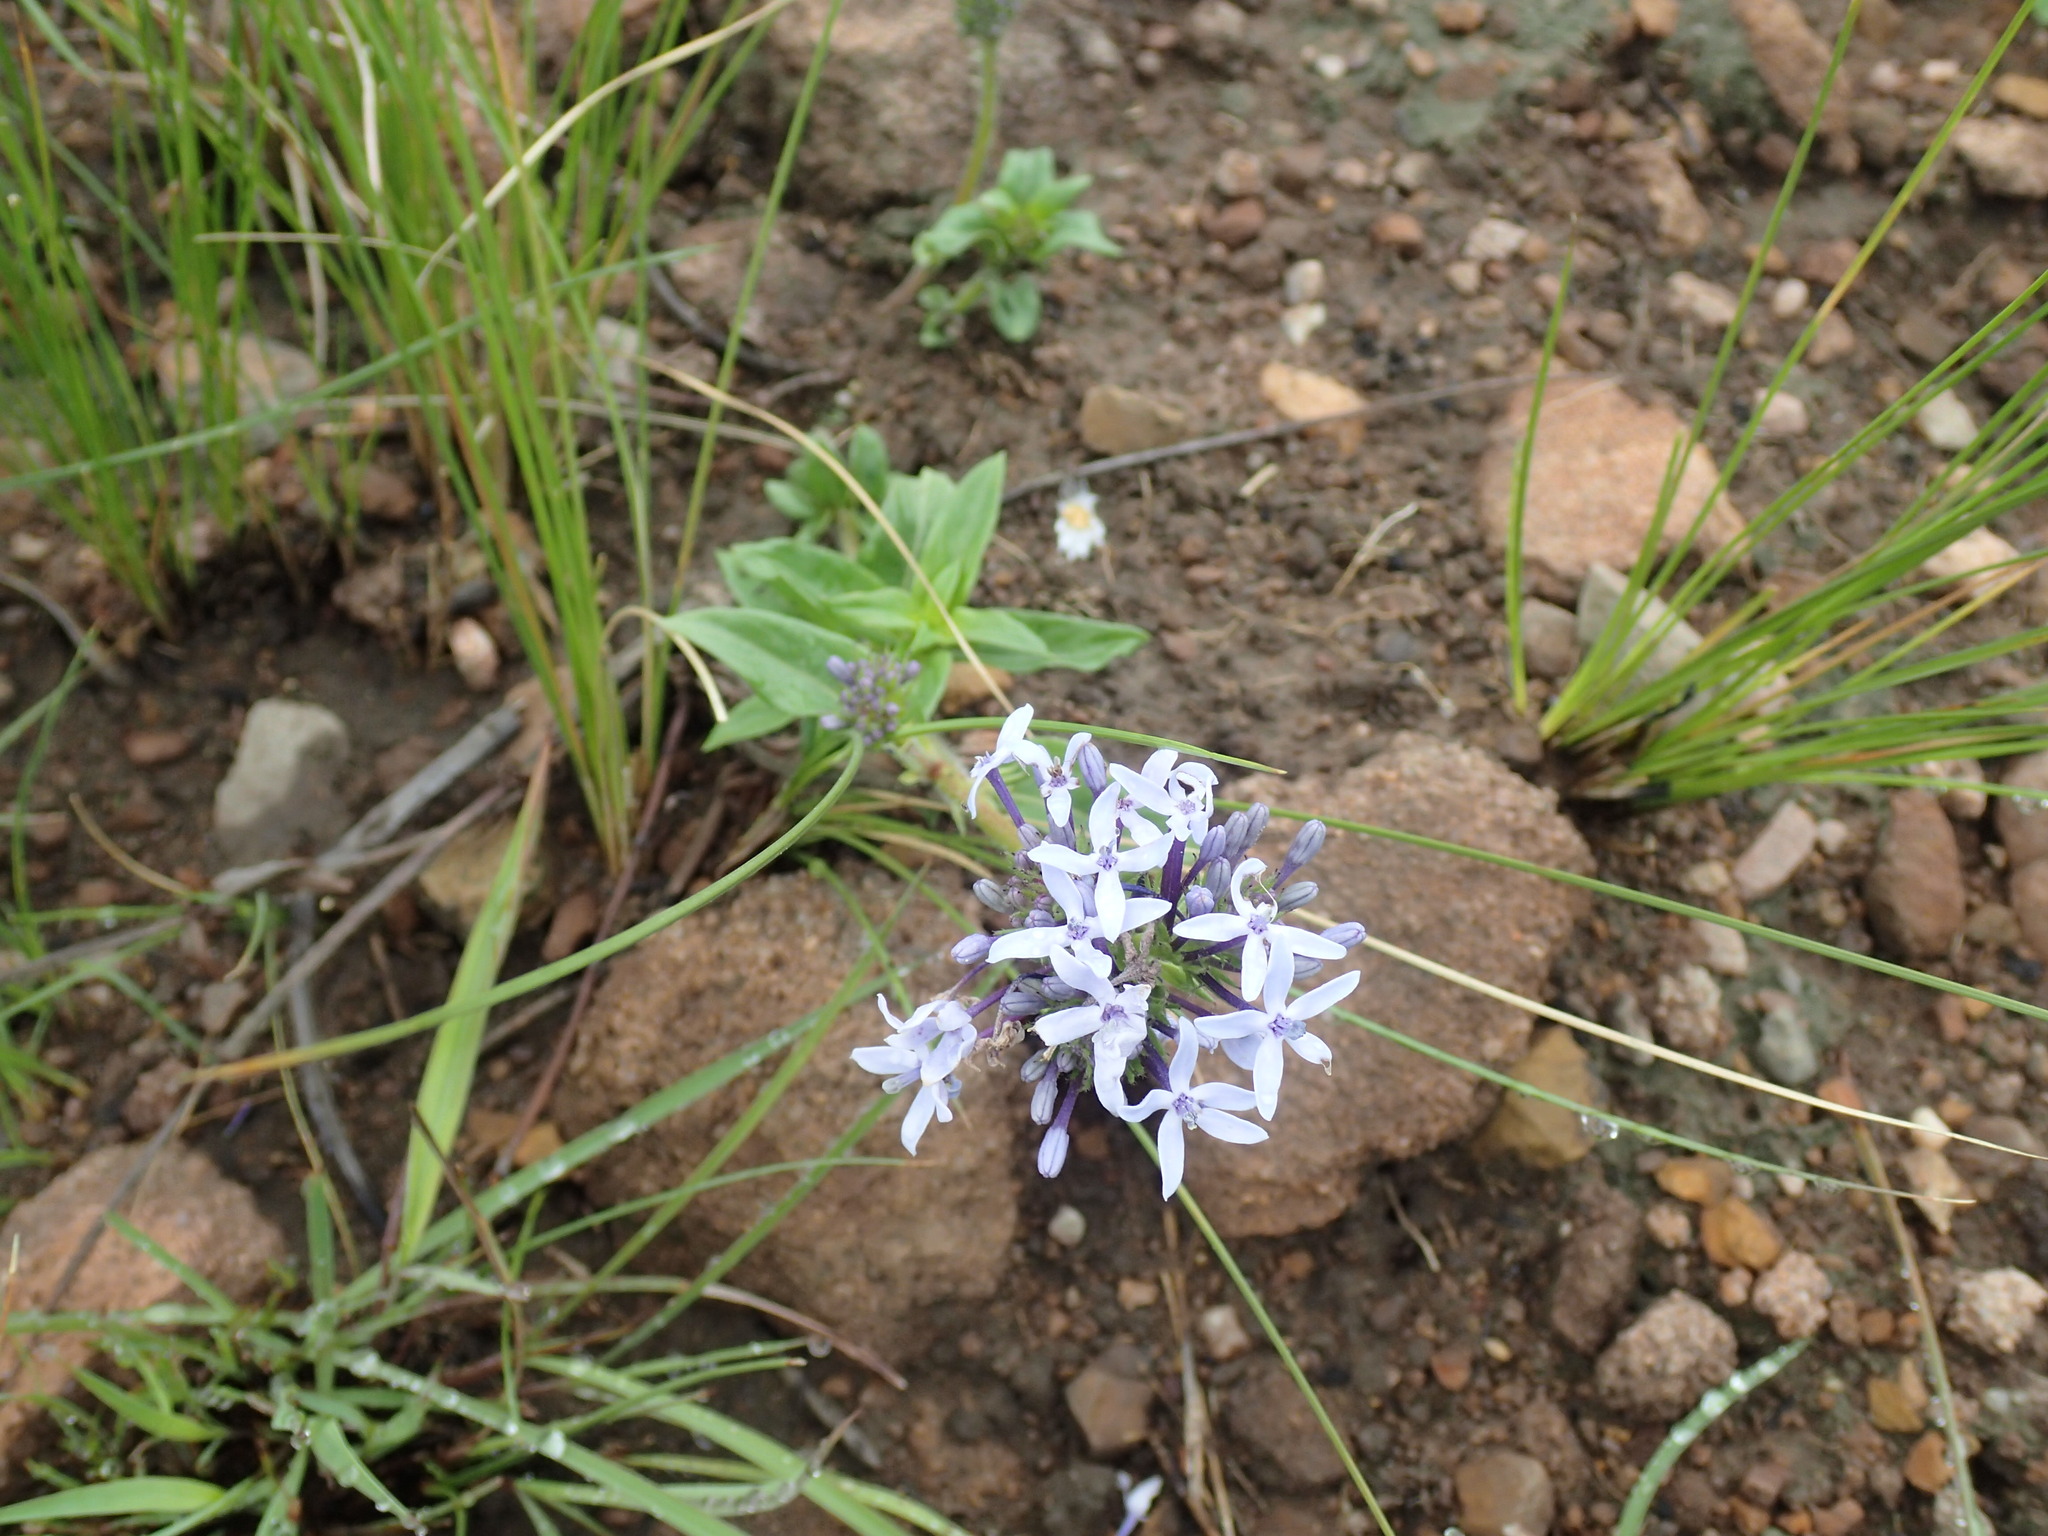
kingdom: Plantae
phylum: Tracheophyta
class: Magnoliopsida
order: Gentianales
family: Rubiaceae
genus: Pentanisia
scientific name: Pentanisia angustifolia
